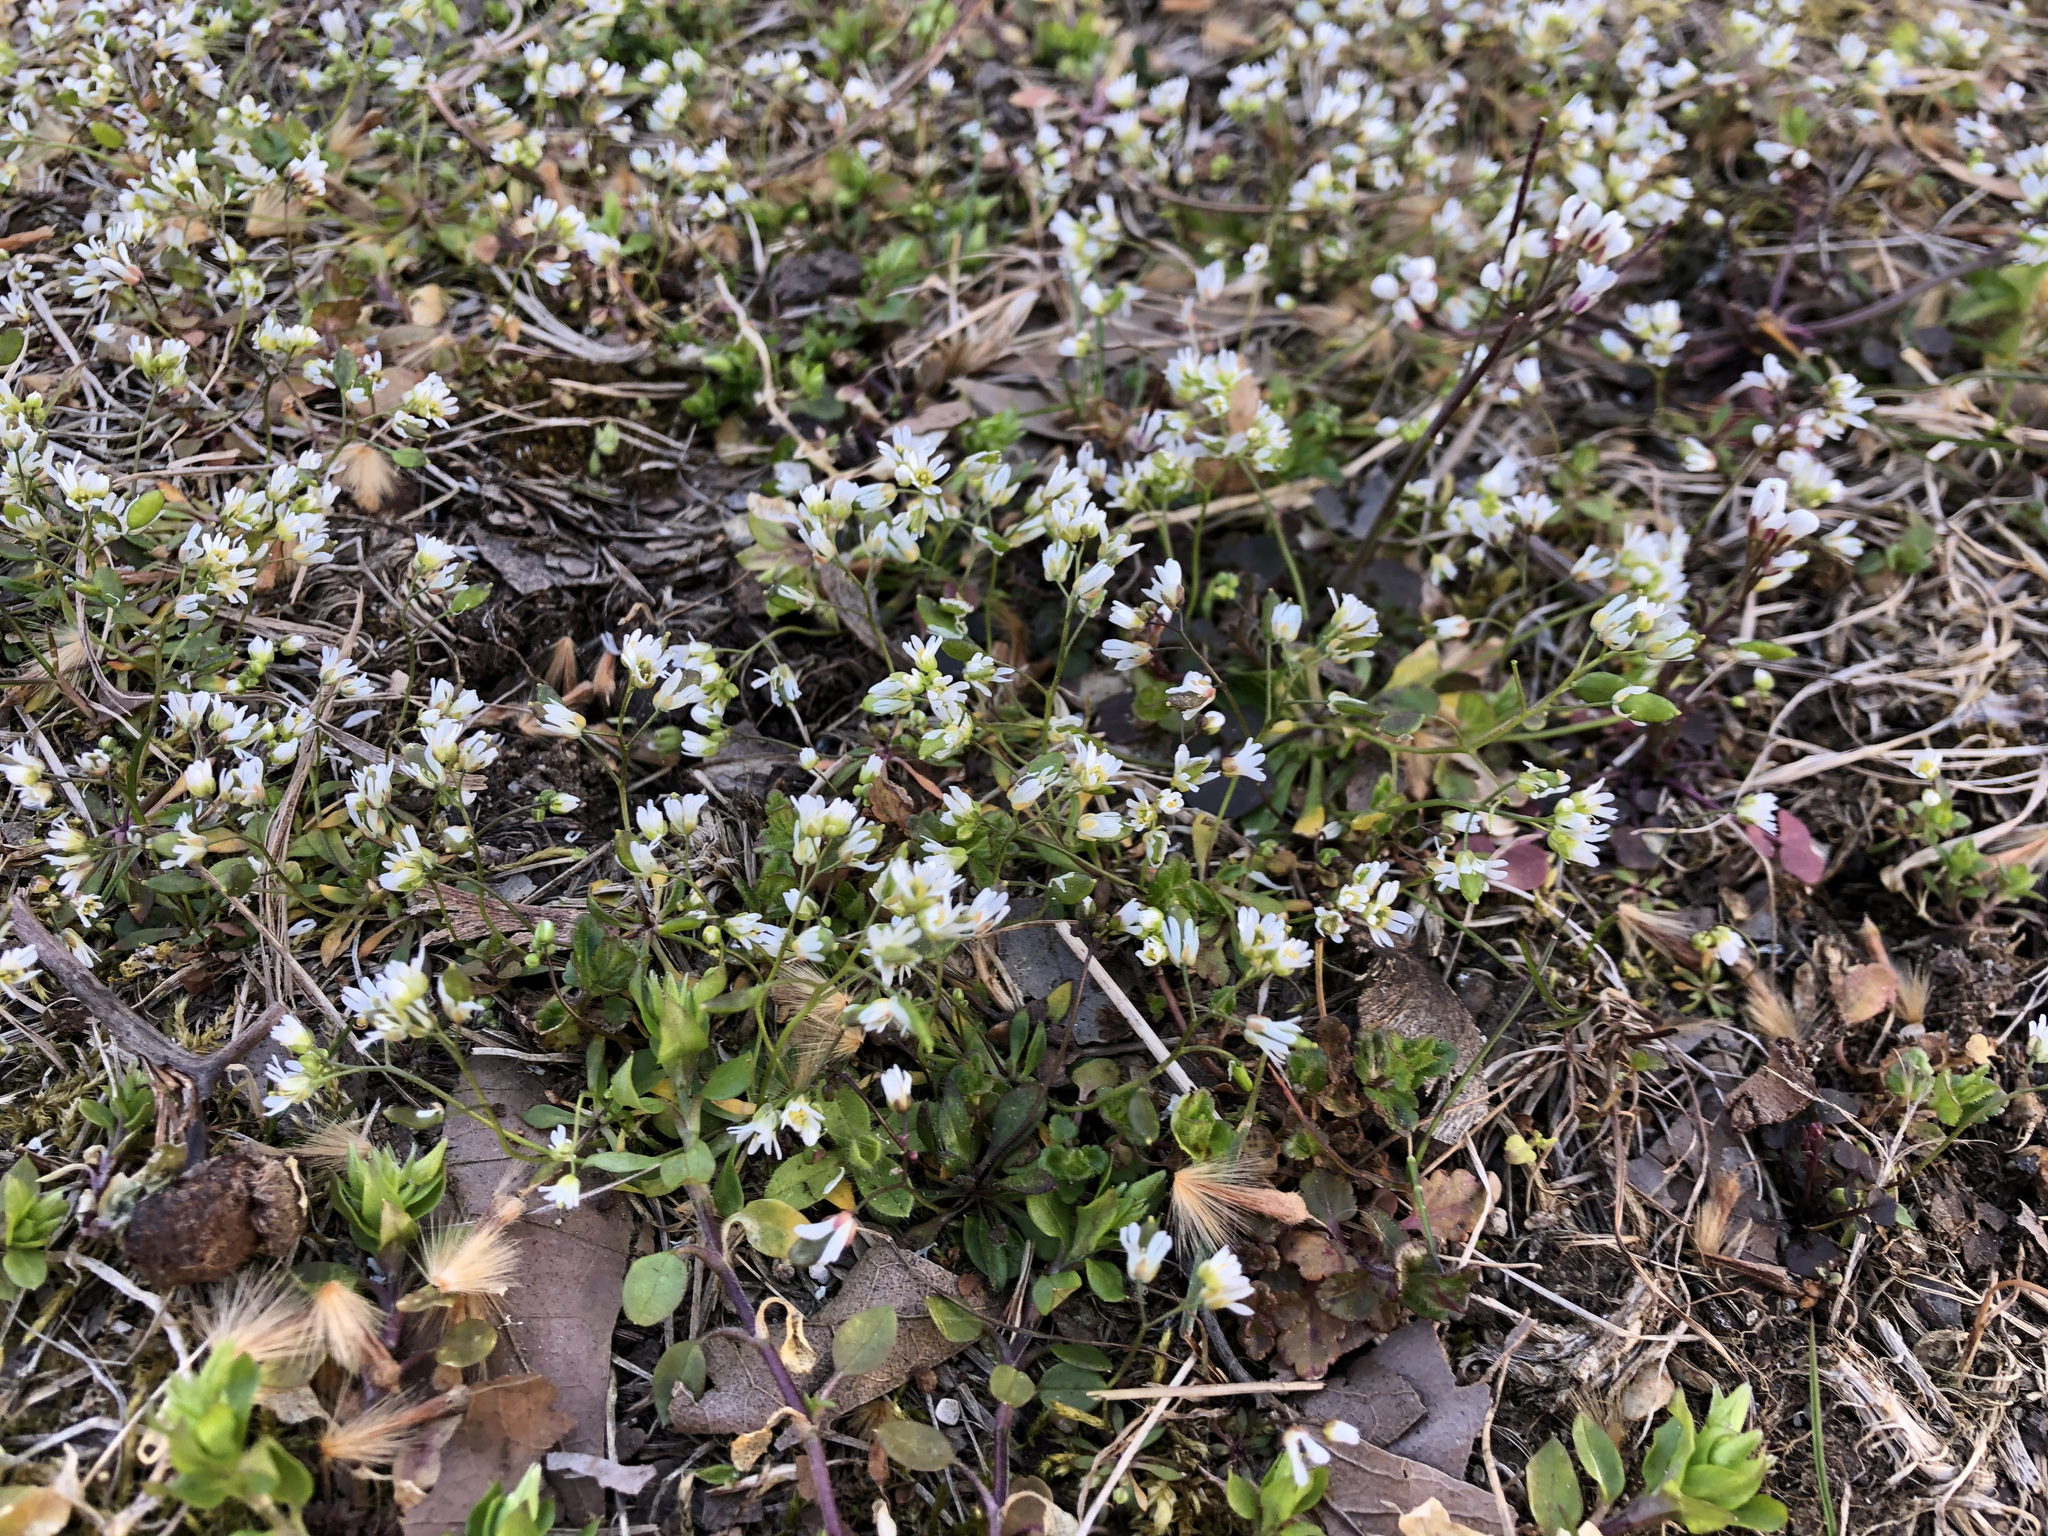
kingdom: Plantae
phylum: Tracheophyta
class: Magnoliopsida
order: Brassicales
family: Brassicaceae
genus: Draba
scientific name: Draba verna
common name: Spring draba
